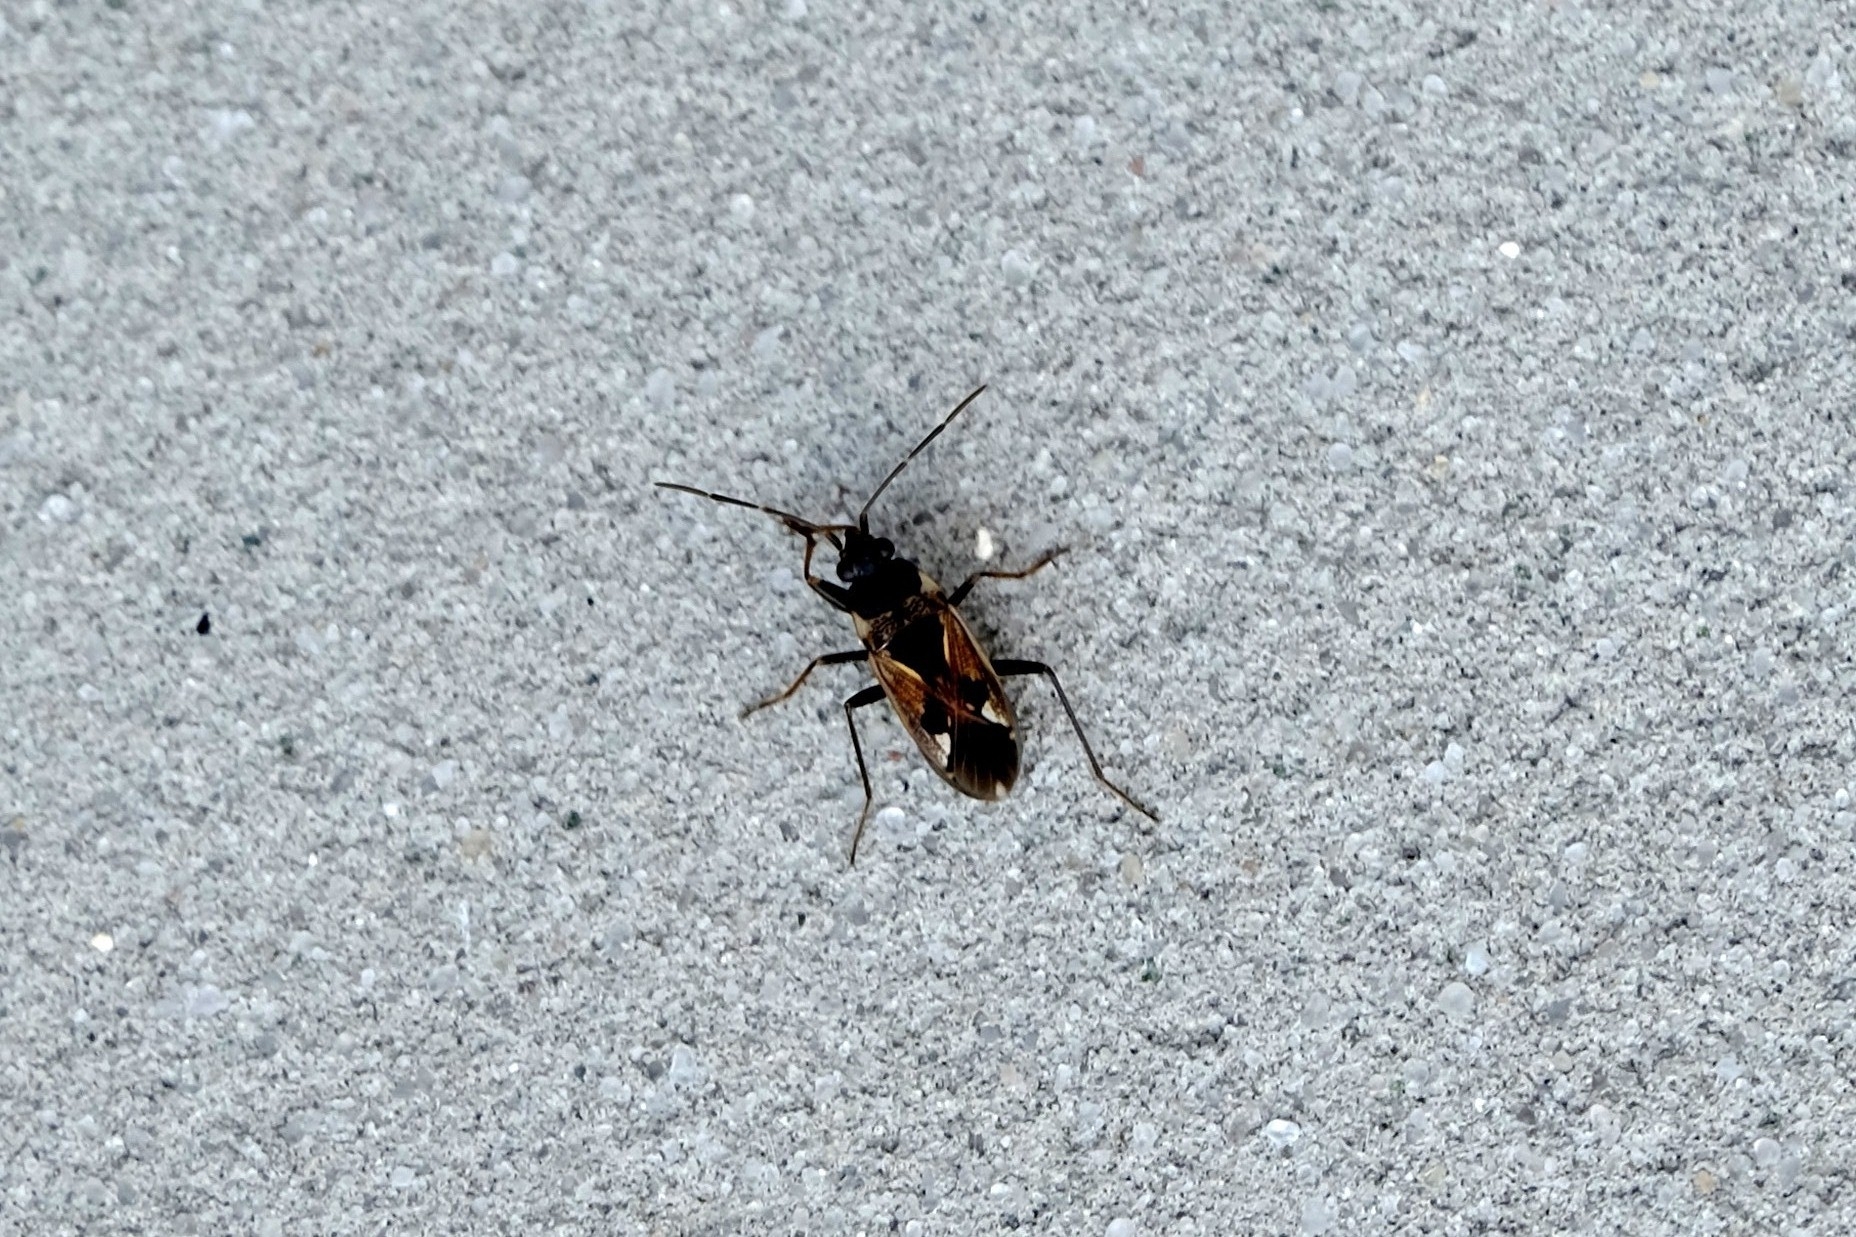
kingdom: Animalia
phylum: Arthropoda
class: Insecta
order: Hemiptera
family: Rhyparochromidae
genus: Rhyparochromus
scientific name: Rhyparochromus vulgaris
